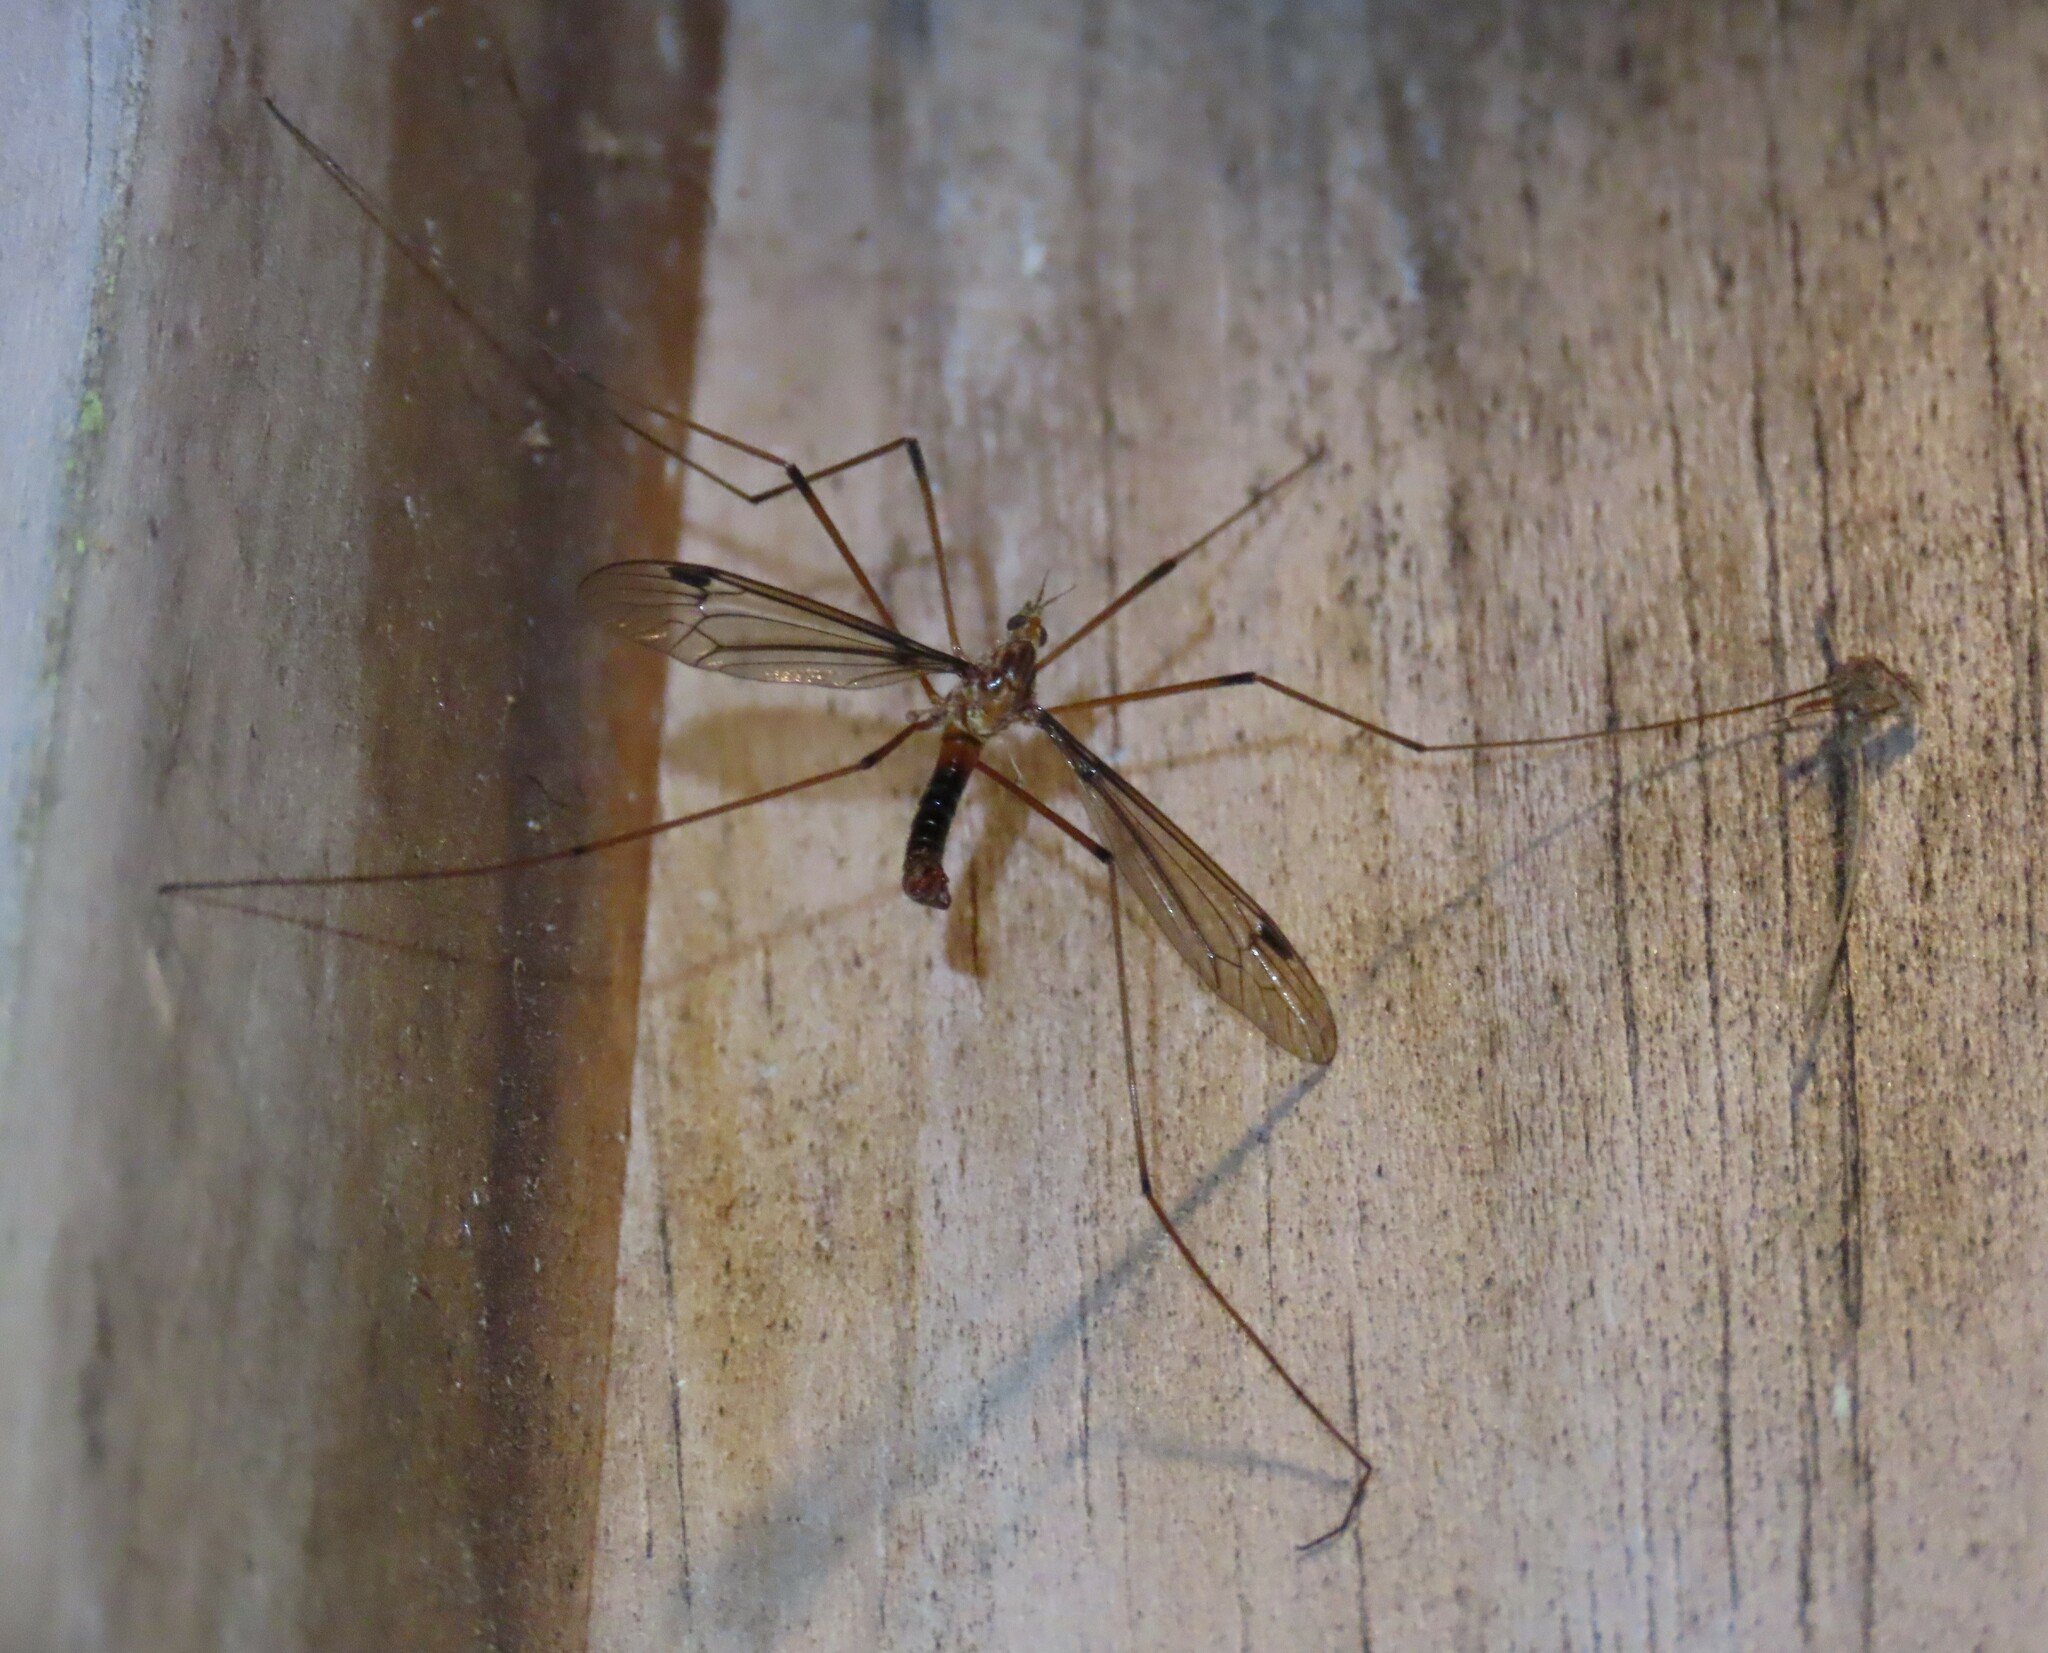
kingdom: Animalia
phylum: Arthropoda
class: Insecta
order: Diptera
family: Tipulidae
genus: Leptotarsus
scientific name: Leptotarsus heterogamus
